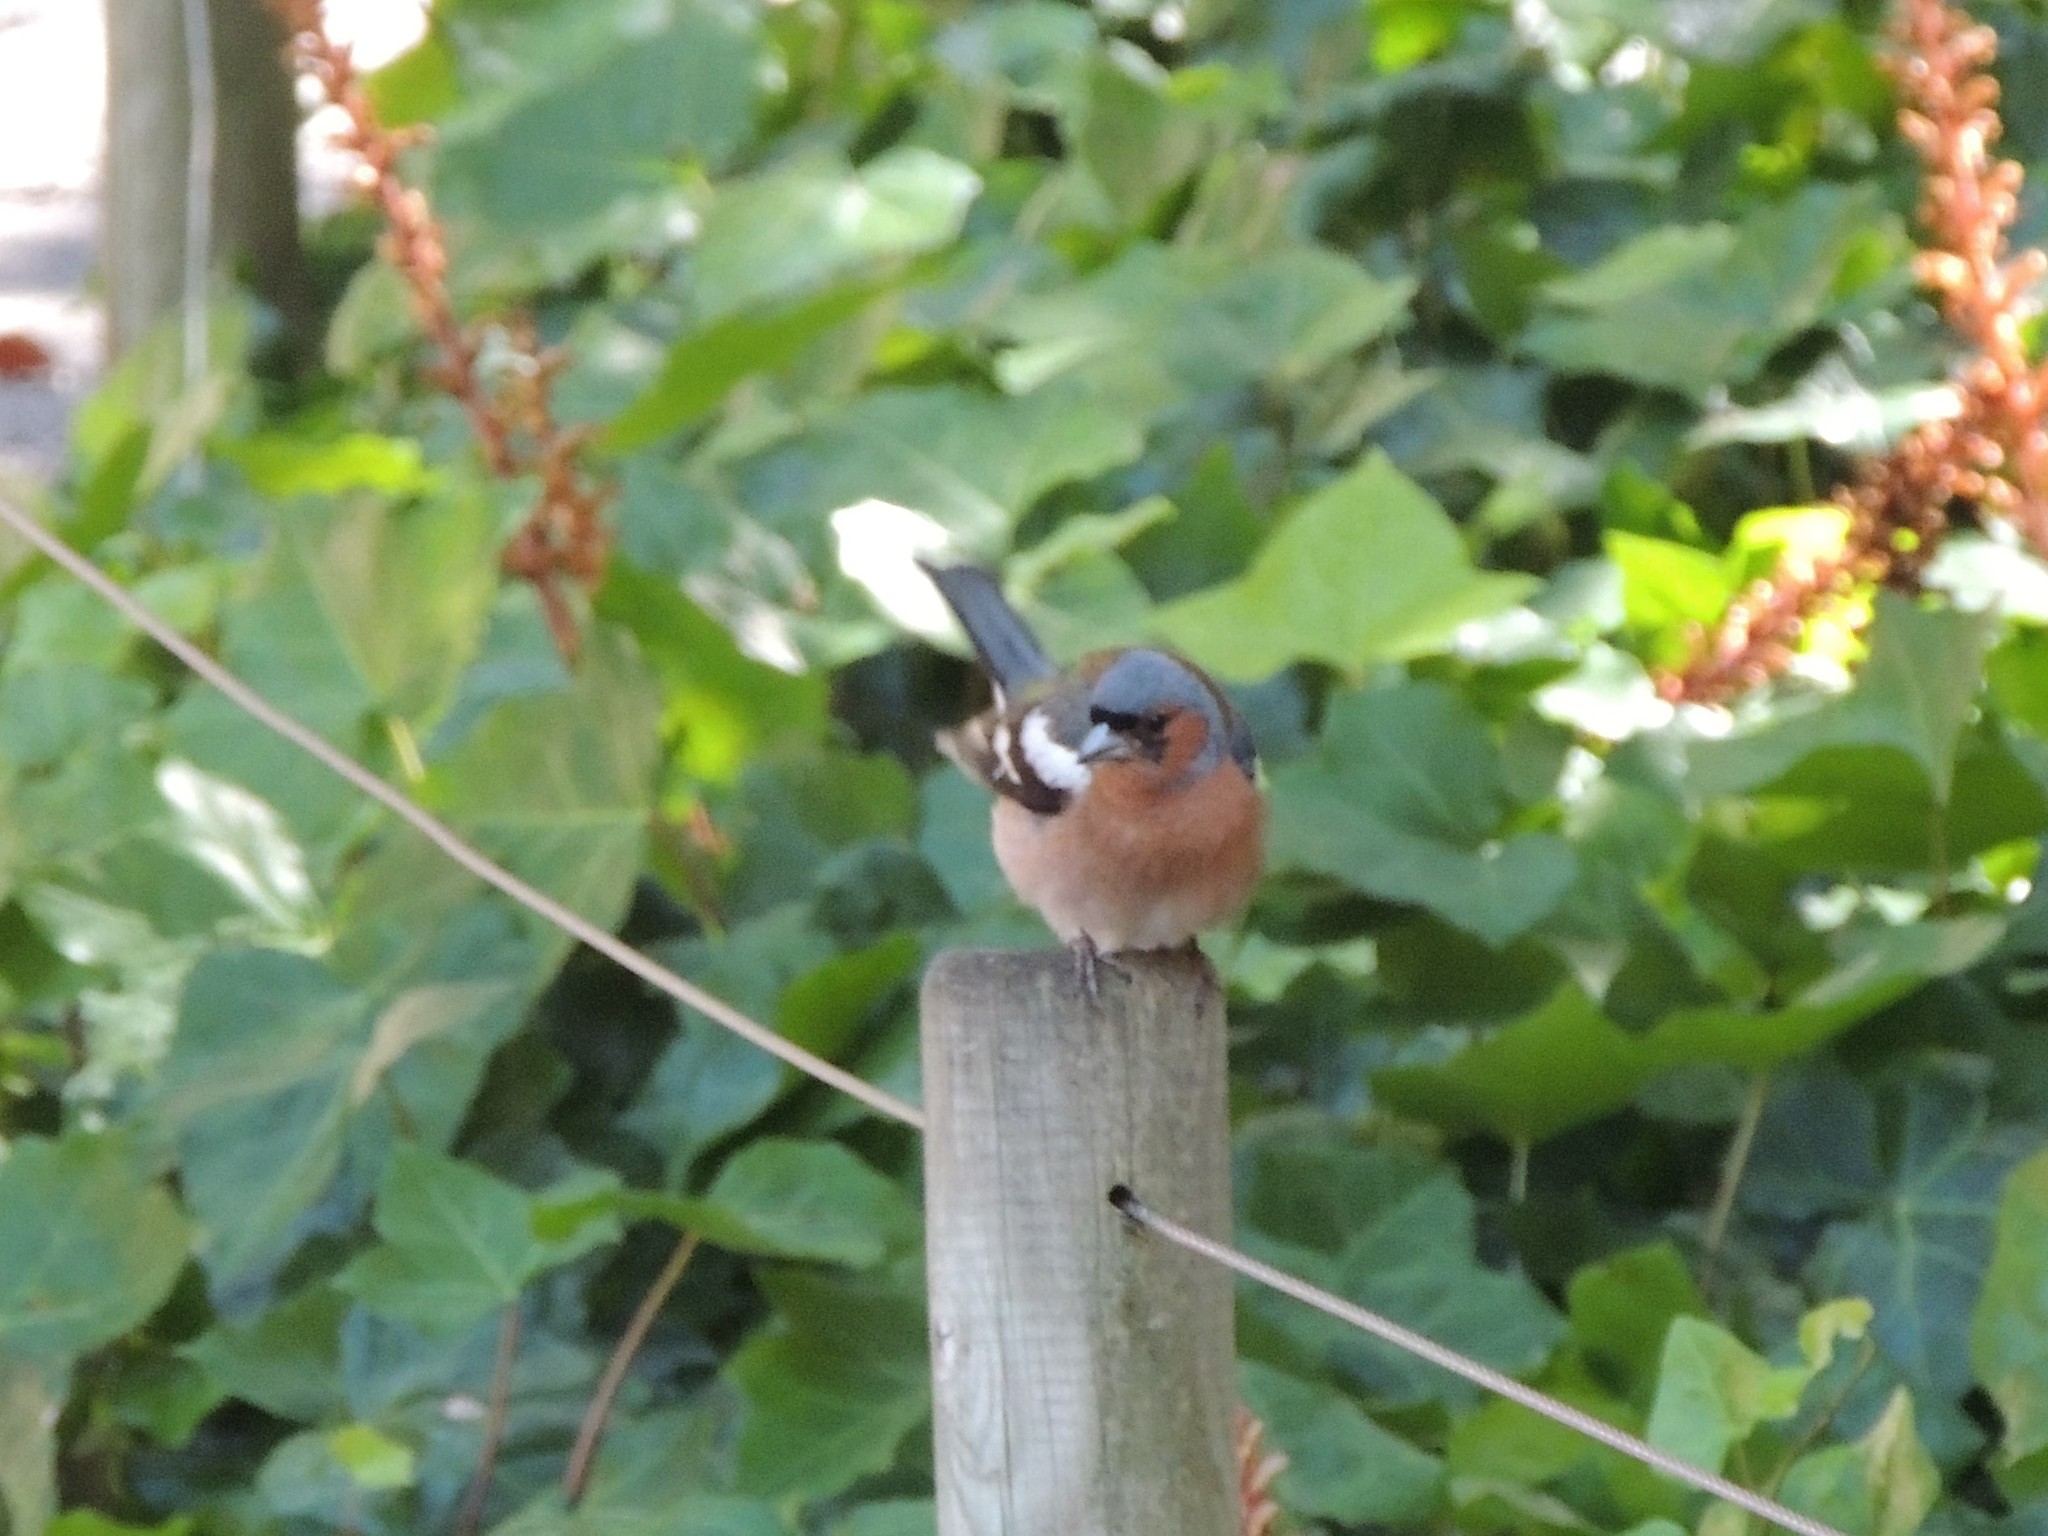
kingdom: Animalia
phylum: Chordata
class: Aves
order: Passeriformes
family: Fringillidae
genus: Fringilla
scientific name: Fringilla coelebs
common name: Common chaffinch
